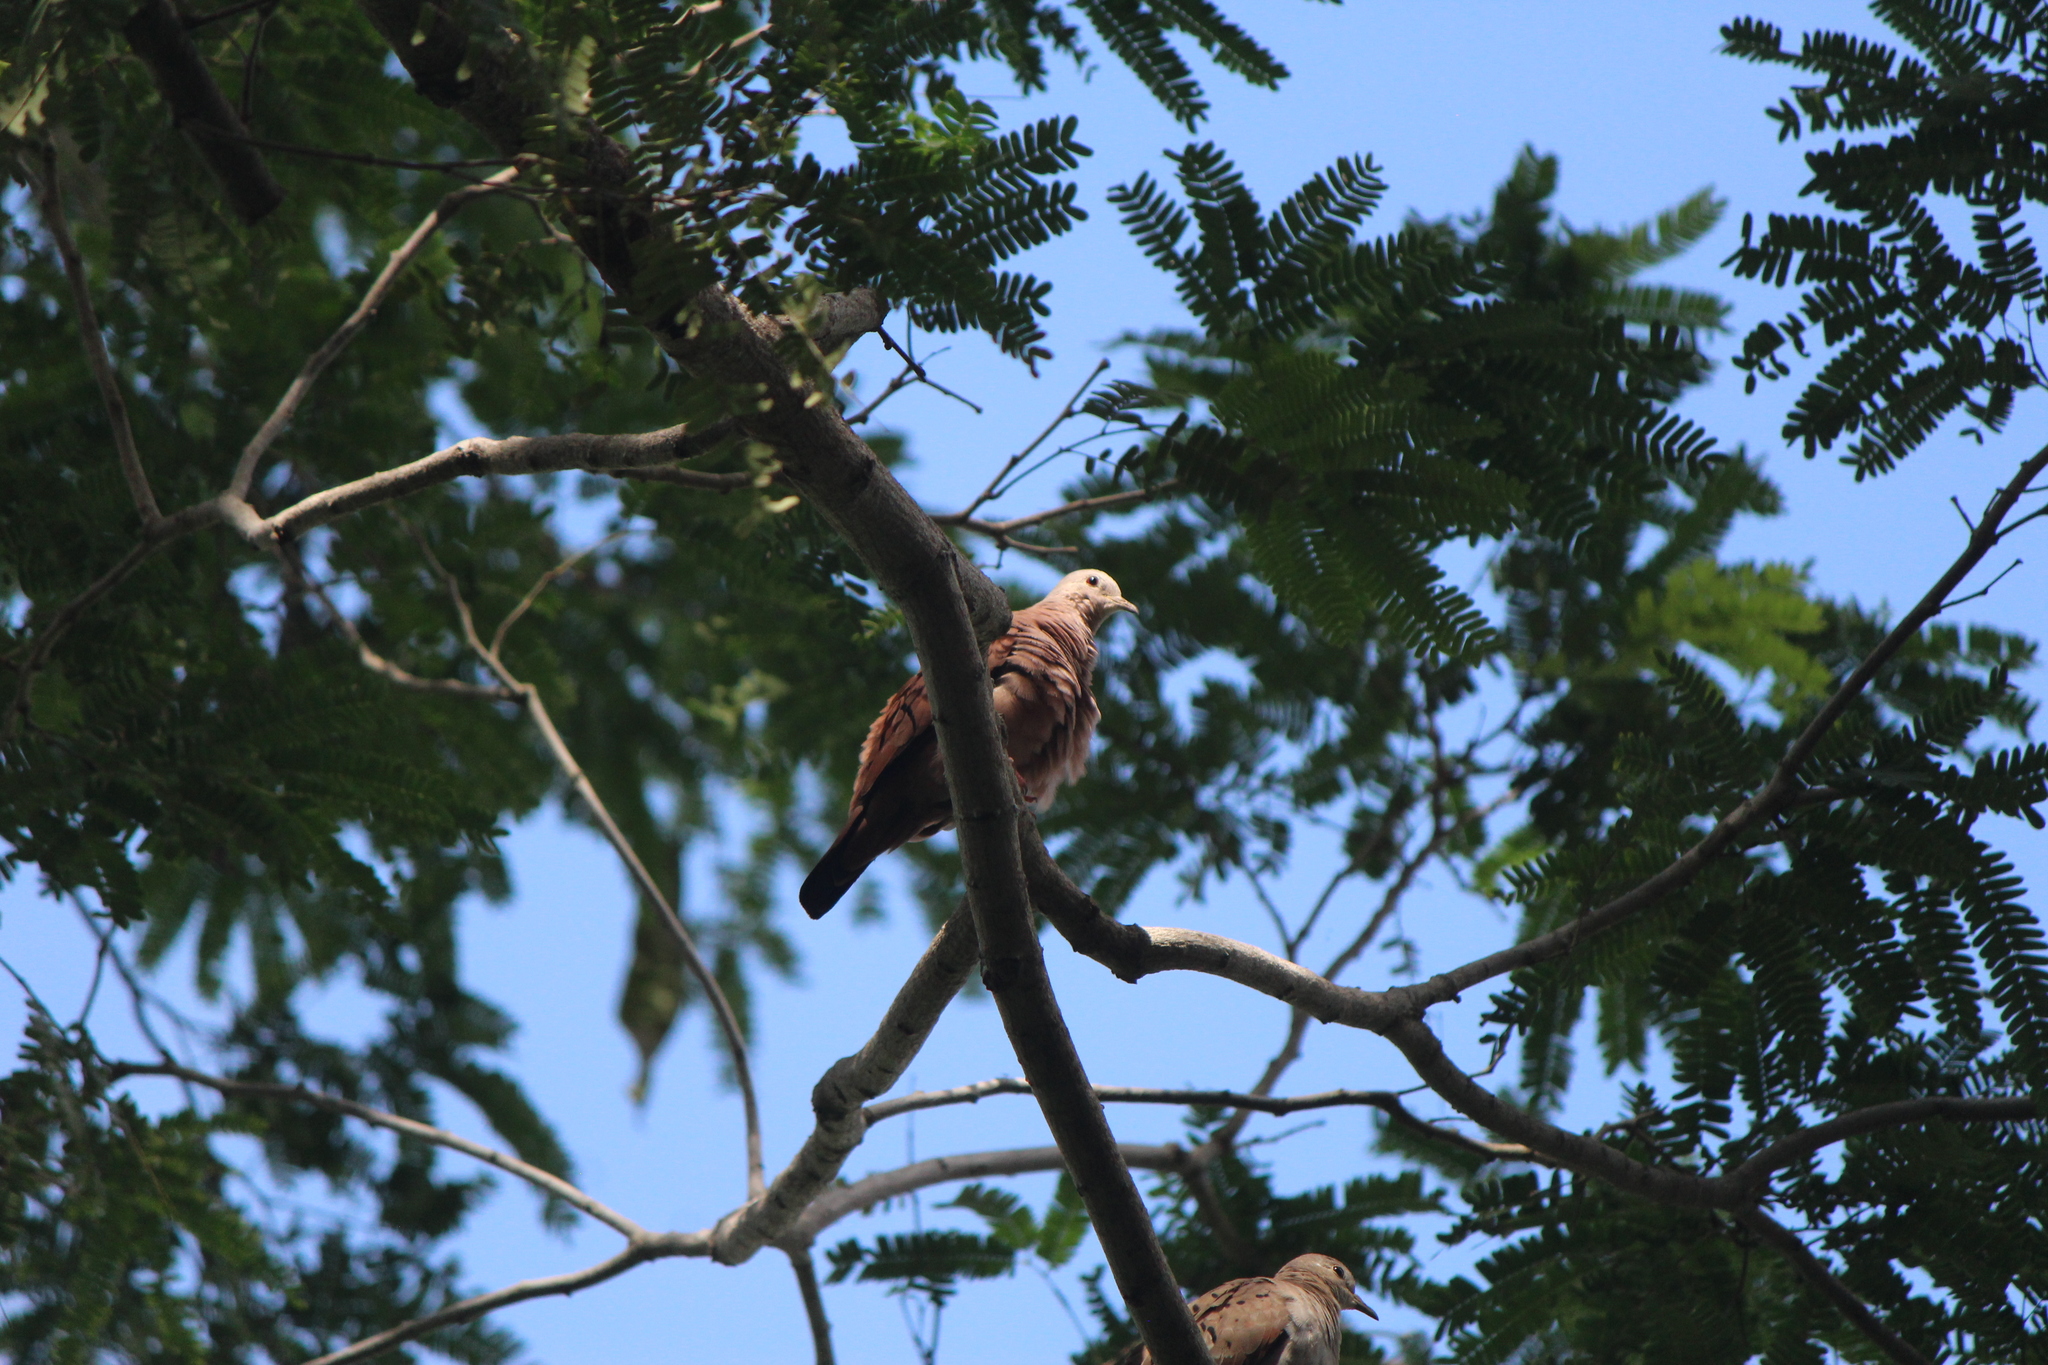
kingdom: Animalia
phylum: Chordata
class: Aves
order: Columbiformes
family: Columbidae
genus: Columbina
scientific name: Columbina talpacoti
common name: Ruddy ground dove
